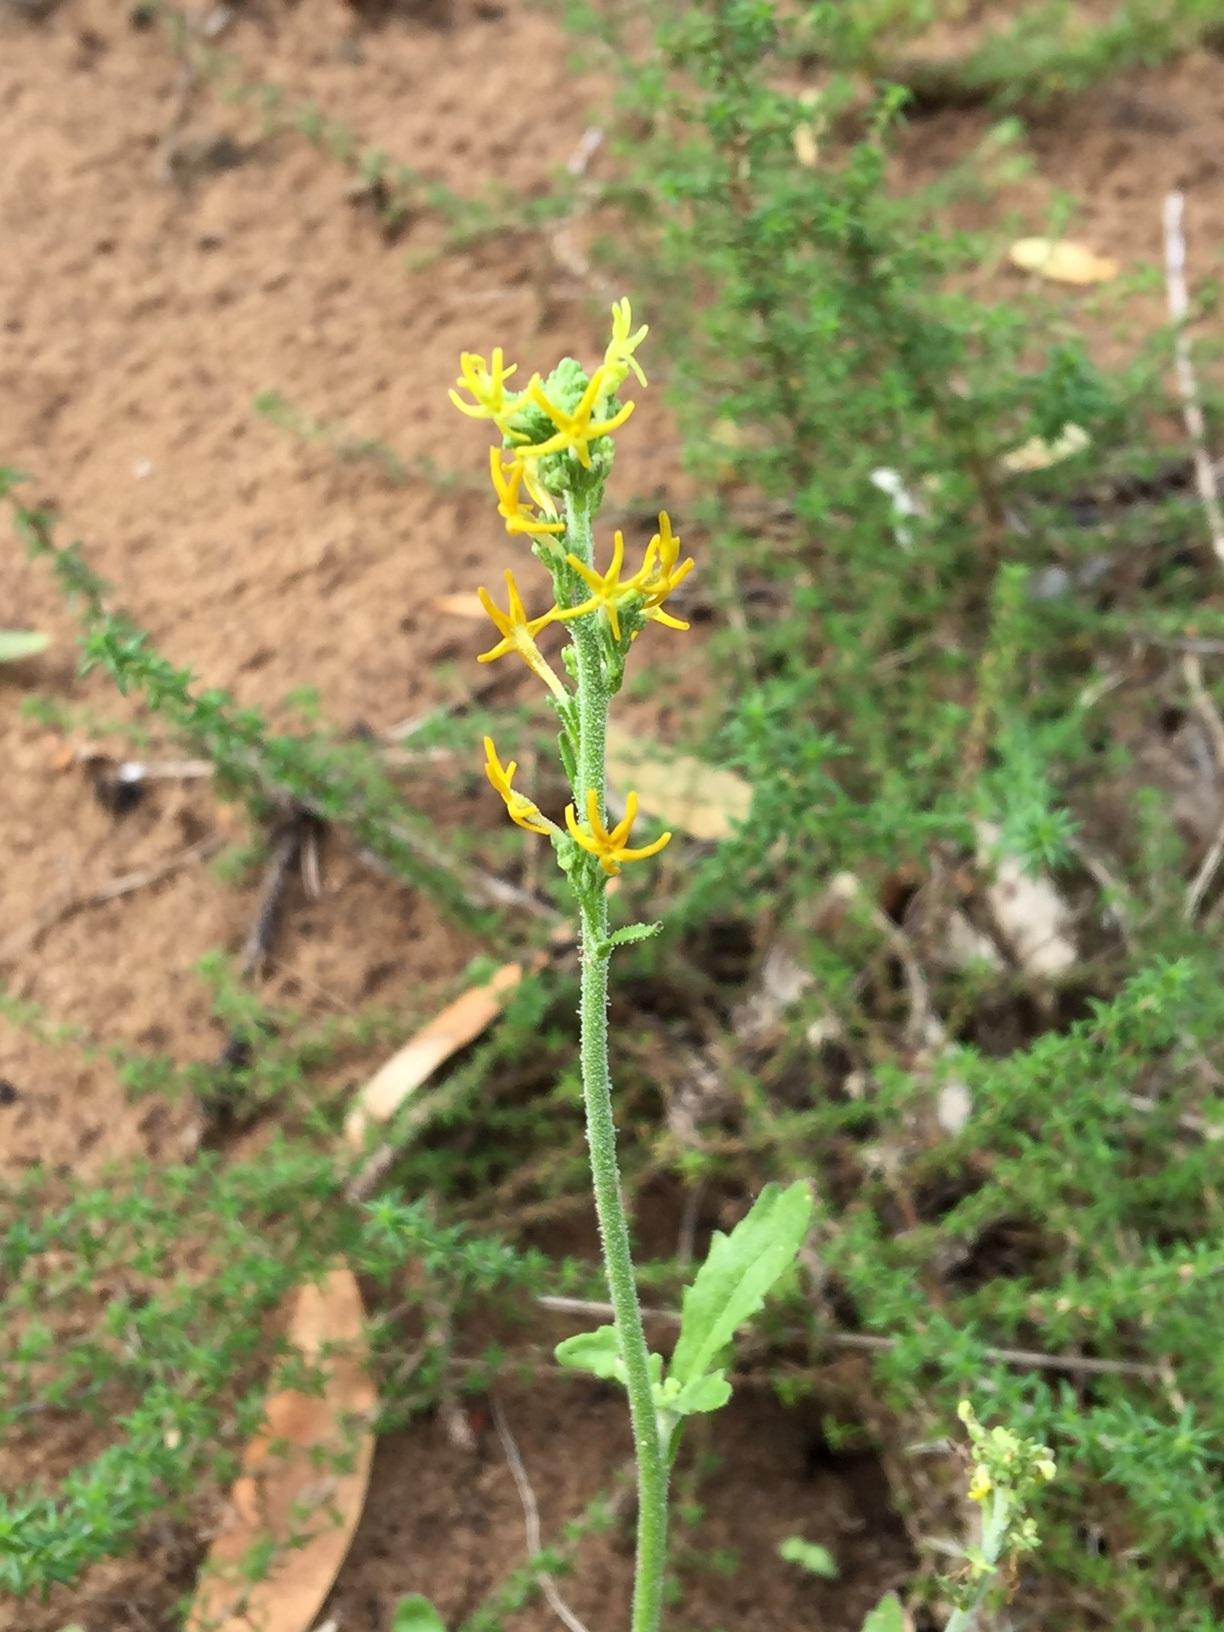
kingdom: Plantae
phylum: Tracheophyta
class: Magnoliopsida
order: Lamiales
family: Scrophulariaceae
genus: Manulea
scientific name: Manulea obovata
